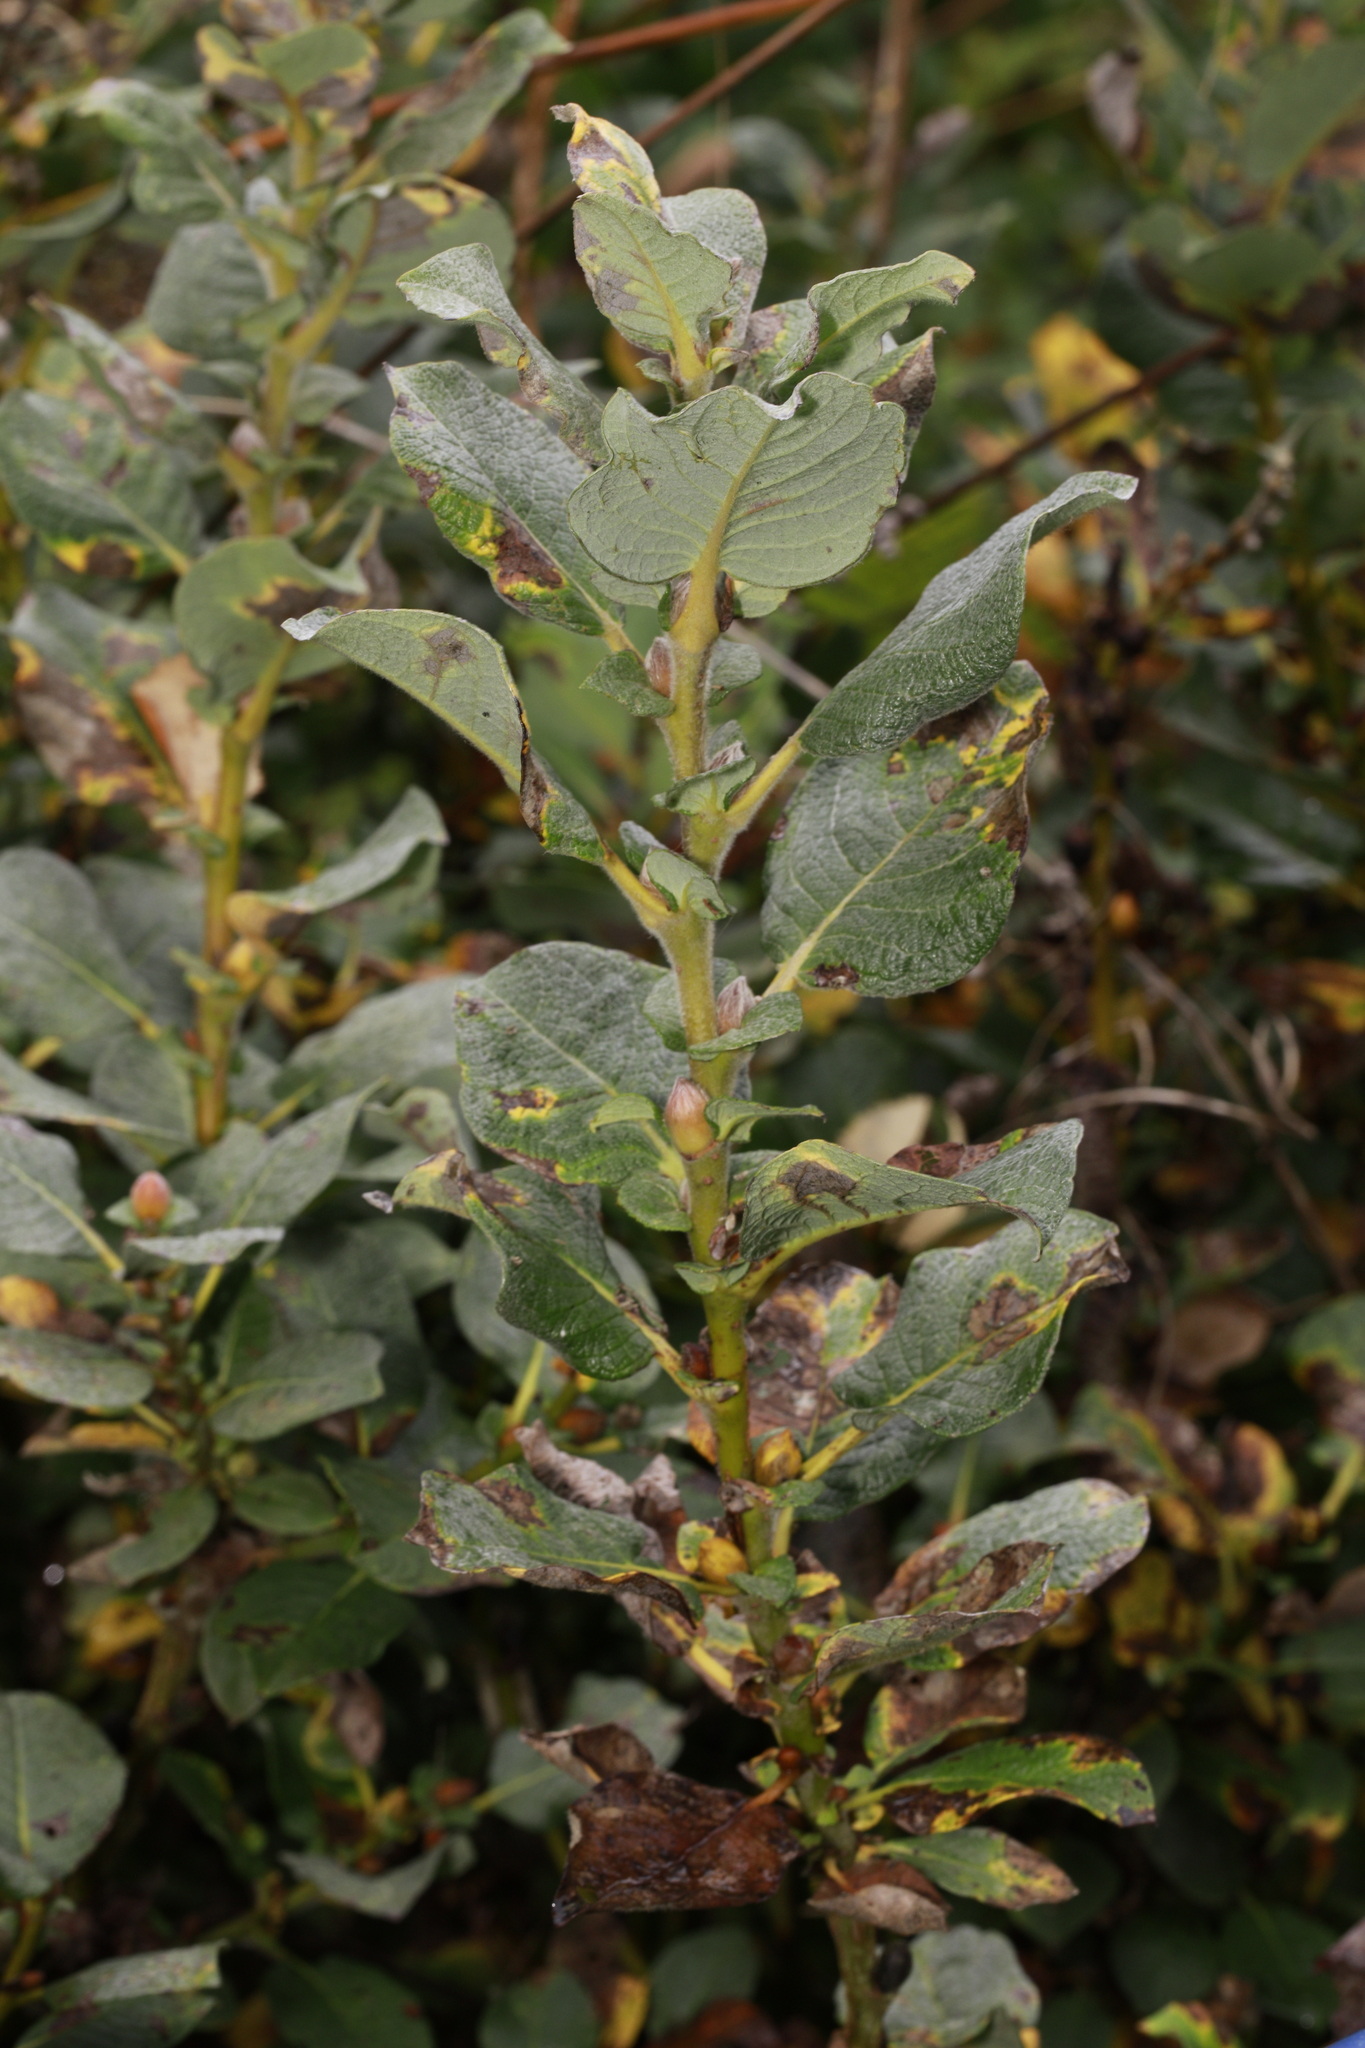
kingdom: Plantae
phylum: Tracheophyta
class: Magnoliopsida
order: Malpighiales
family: Salicaceae
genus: Salix
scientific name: Salix caprea
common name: Goat willow
